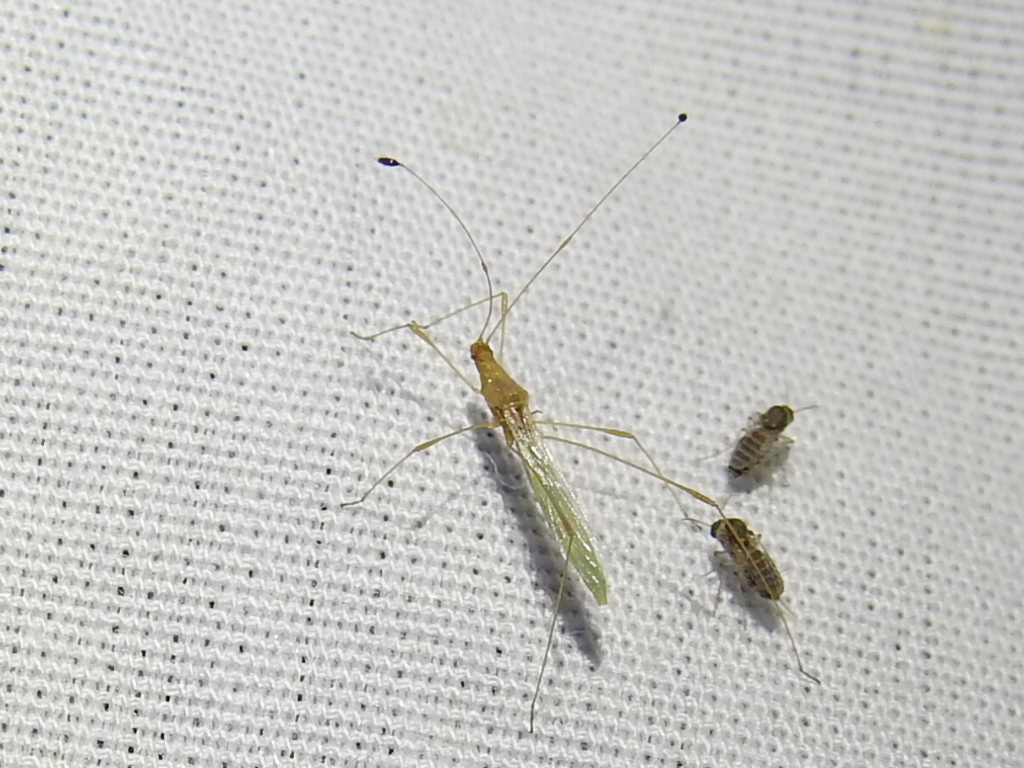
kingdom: Animalia
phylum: Arthropoda
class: Insecta
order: Hemiptera
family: Berytidae
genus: Metacanthus
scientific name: Metacanthus multispinus
